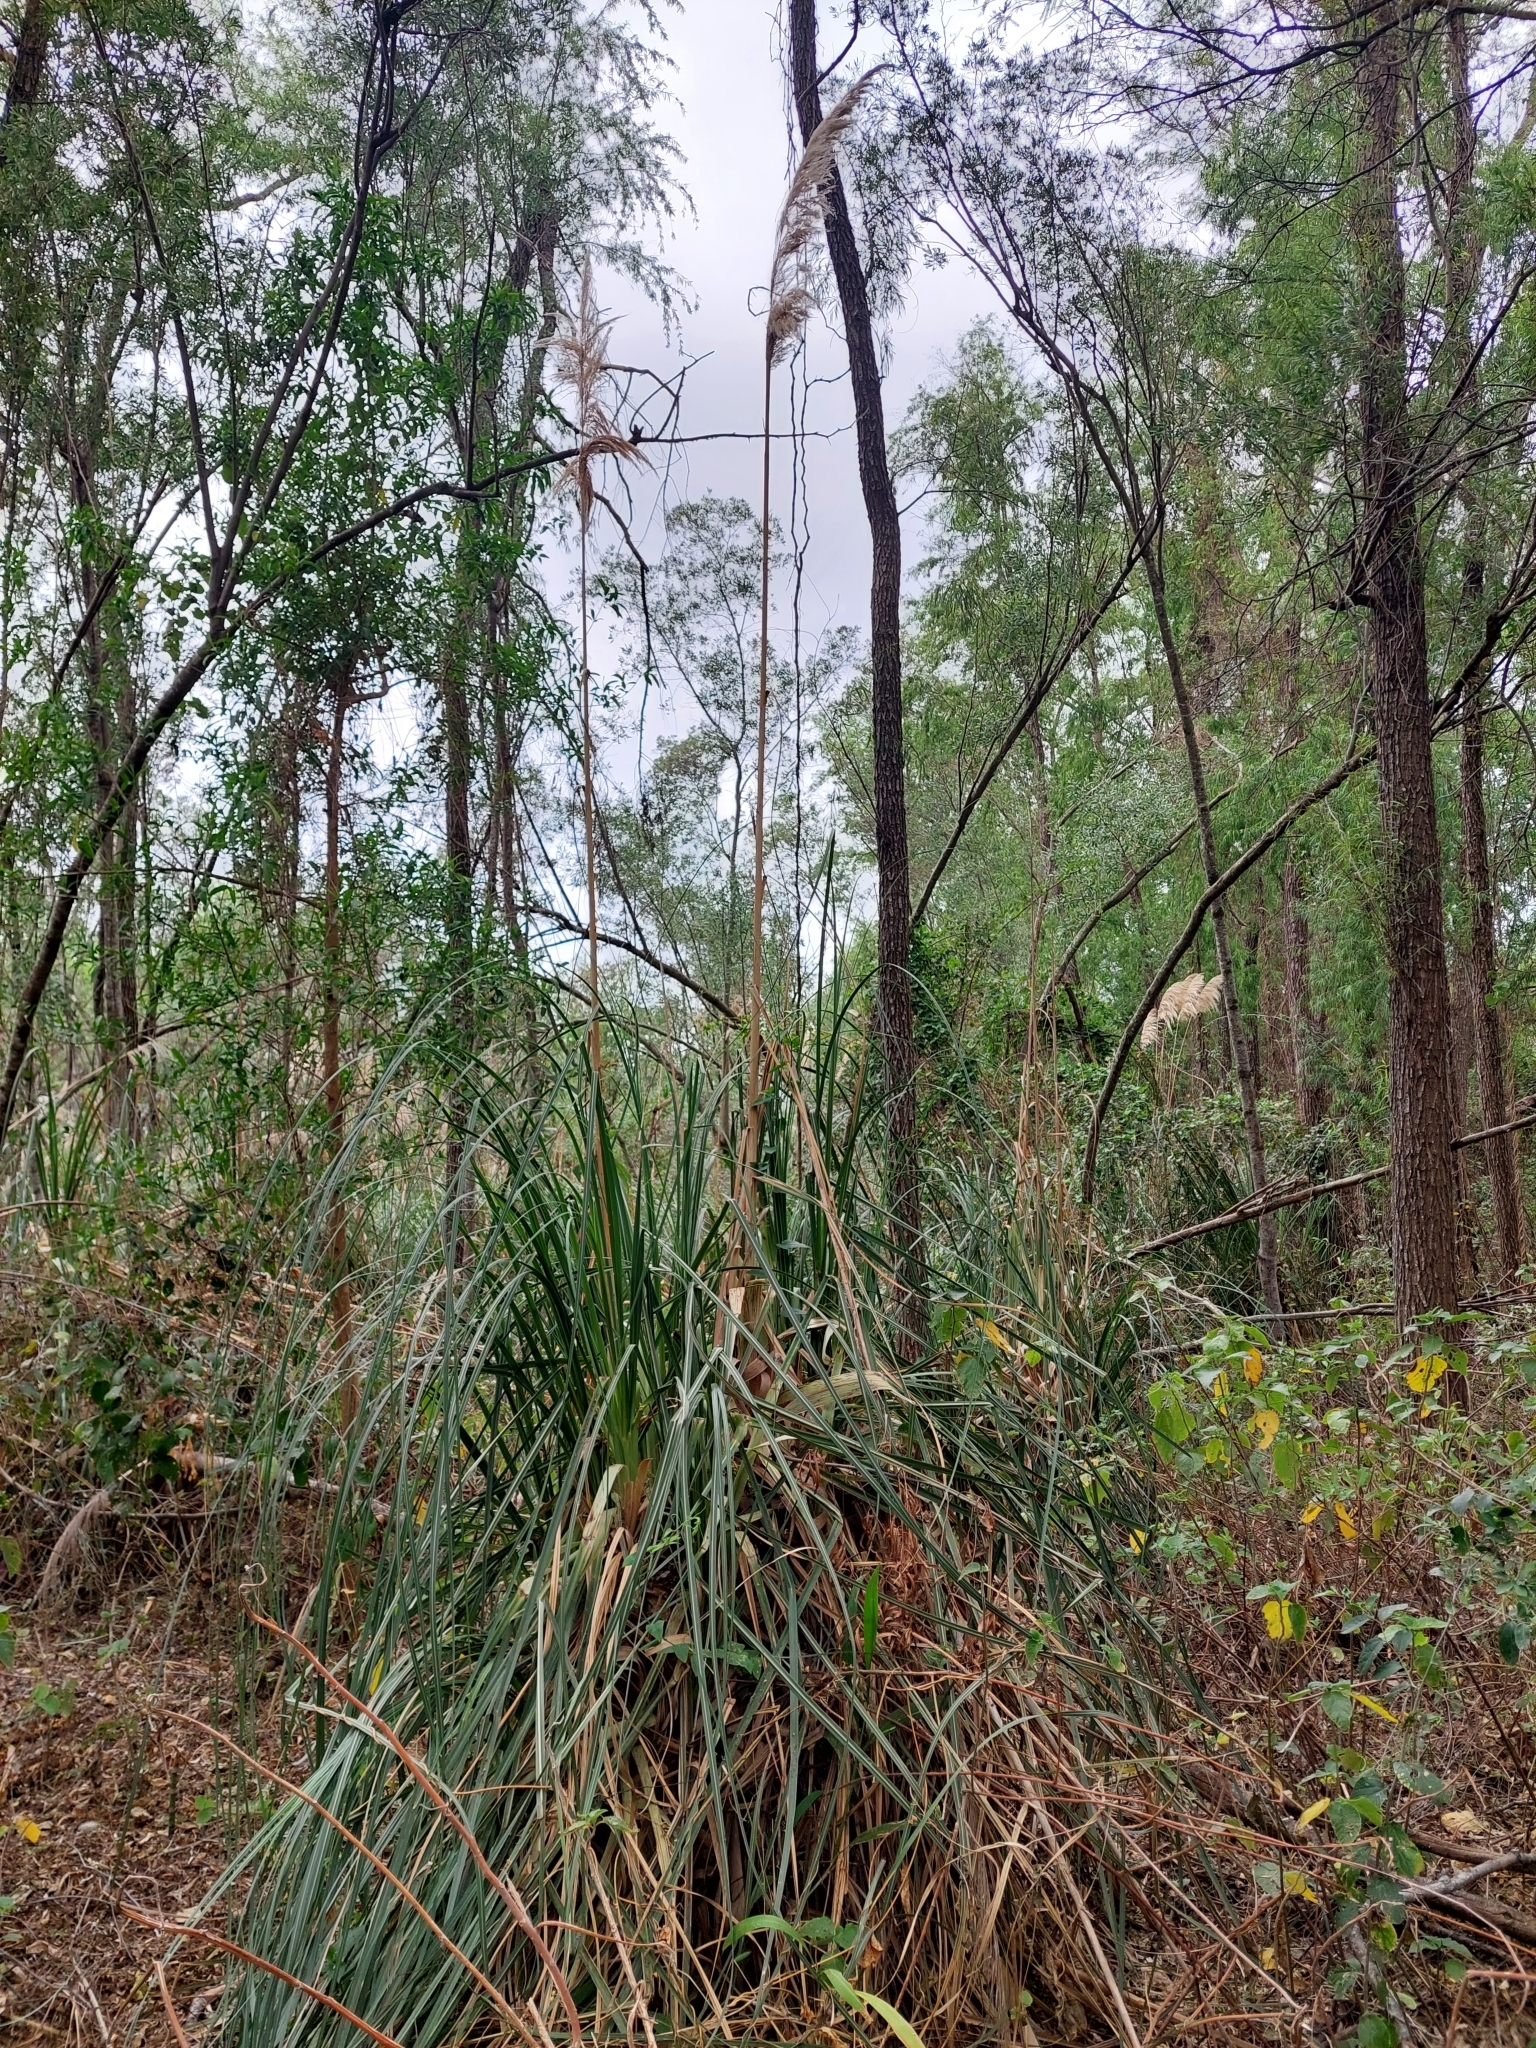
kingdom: Plantae
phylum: Tracheophyta
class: Liliopsida
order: Poales
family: Poaceae
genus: Cortaderia
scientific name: Cortaderia selloana
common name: Uruguayan pampas grass
